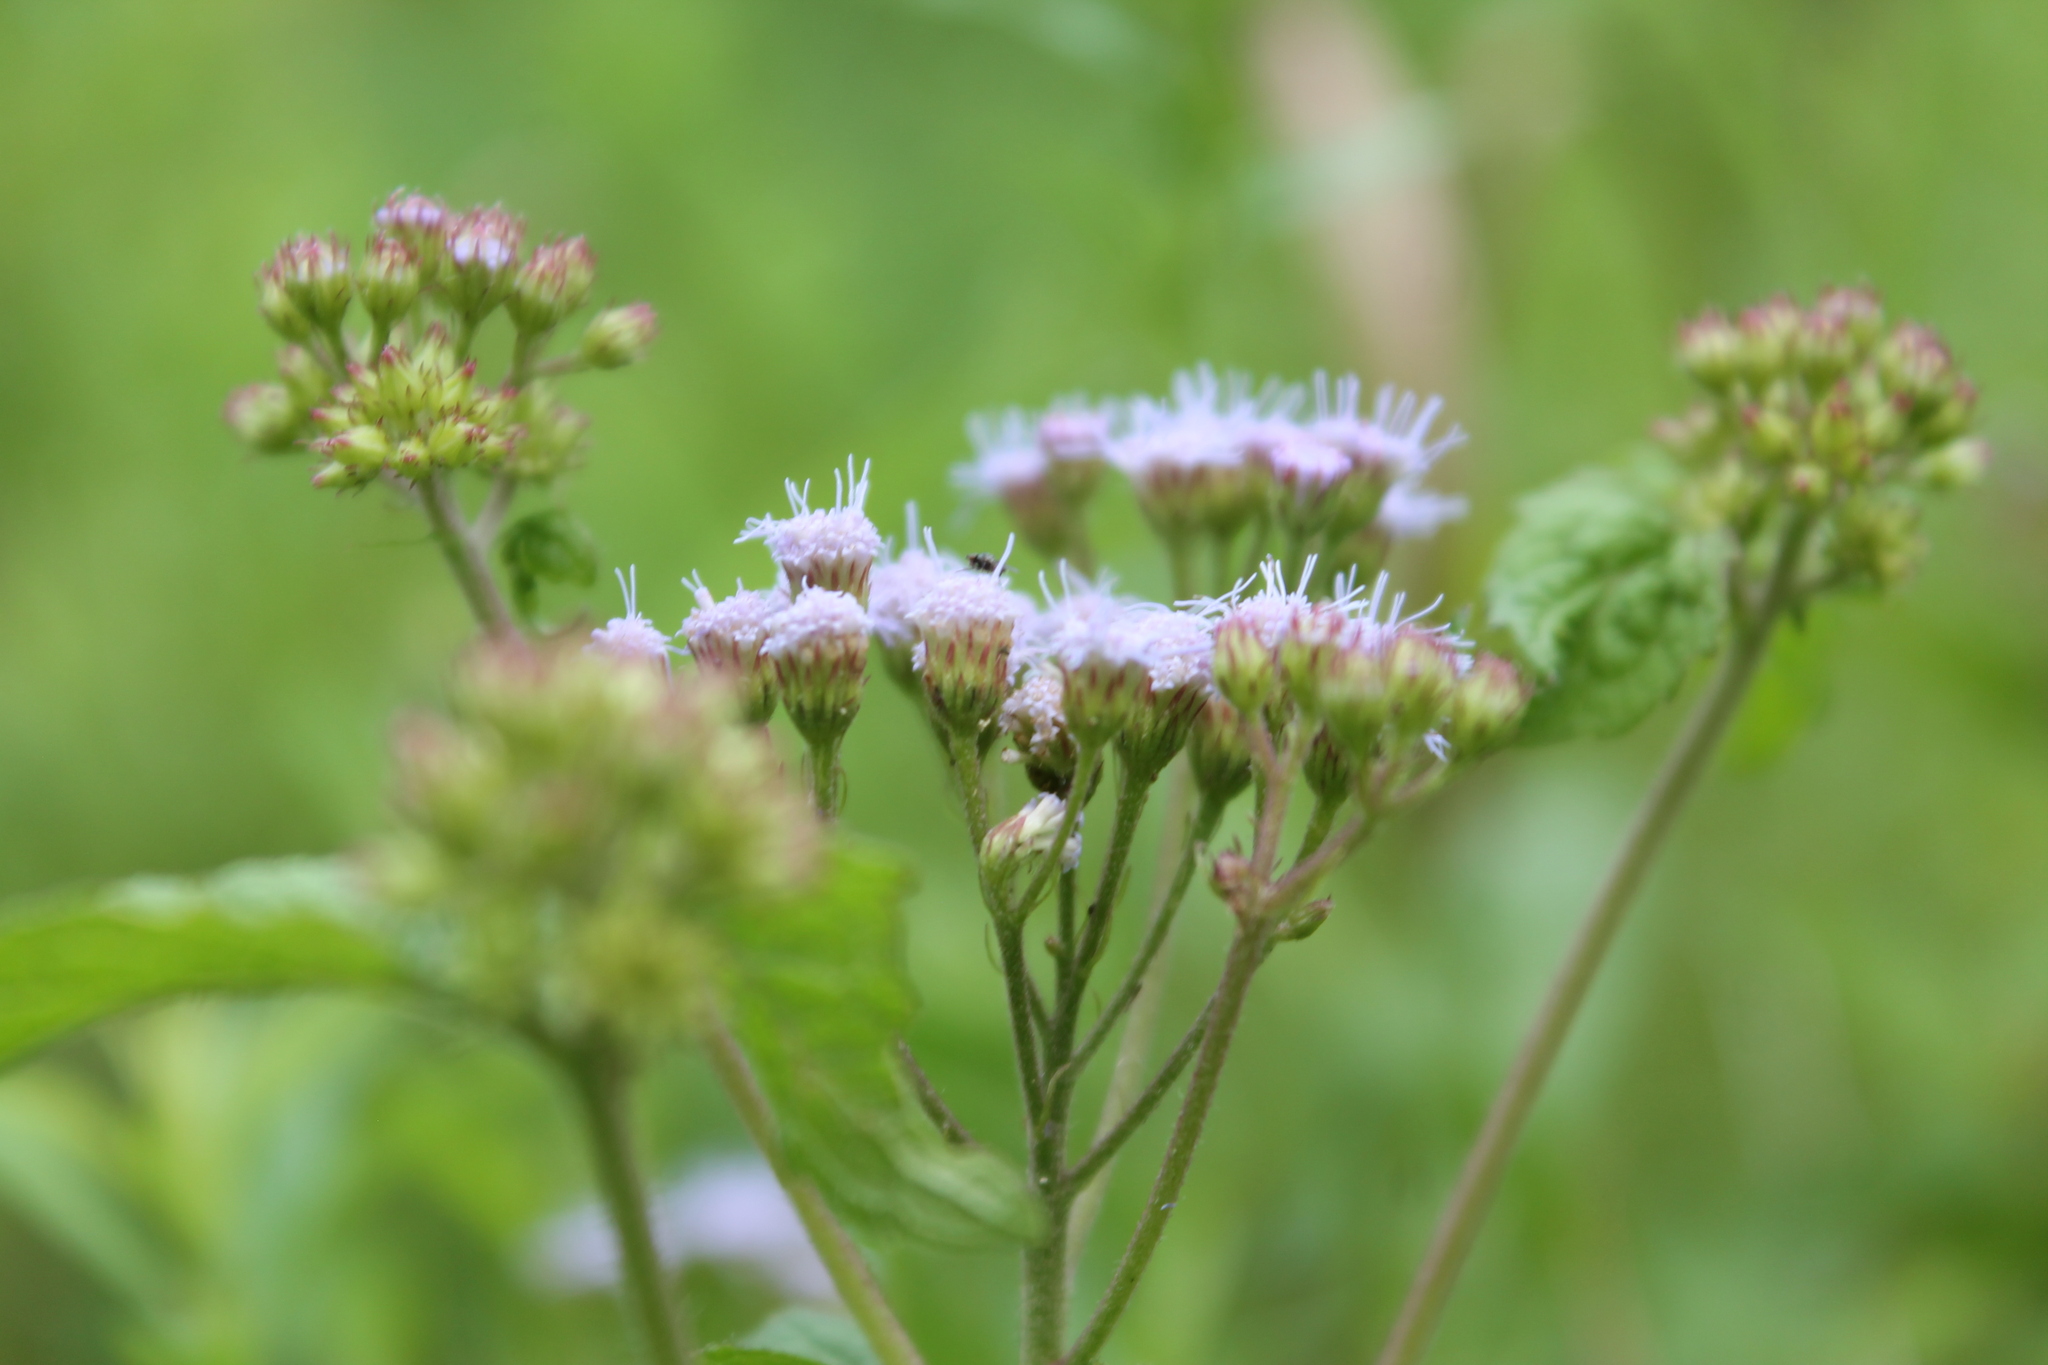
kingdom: Plantae
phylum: Tracheophyta
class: Magnoliopsida
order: Asterales
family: Asteraceae
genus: Conoclinium
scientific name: Conoclinium coelestinum
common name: Blue mistflower
